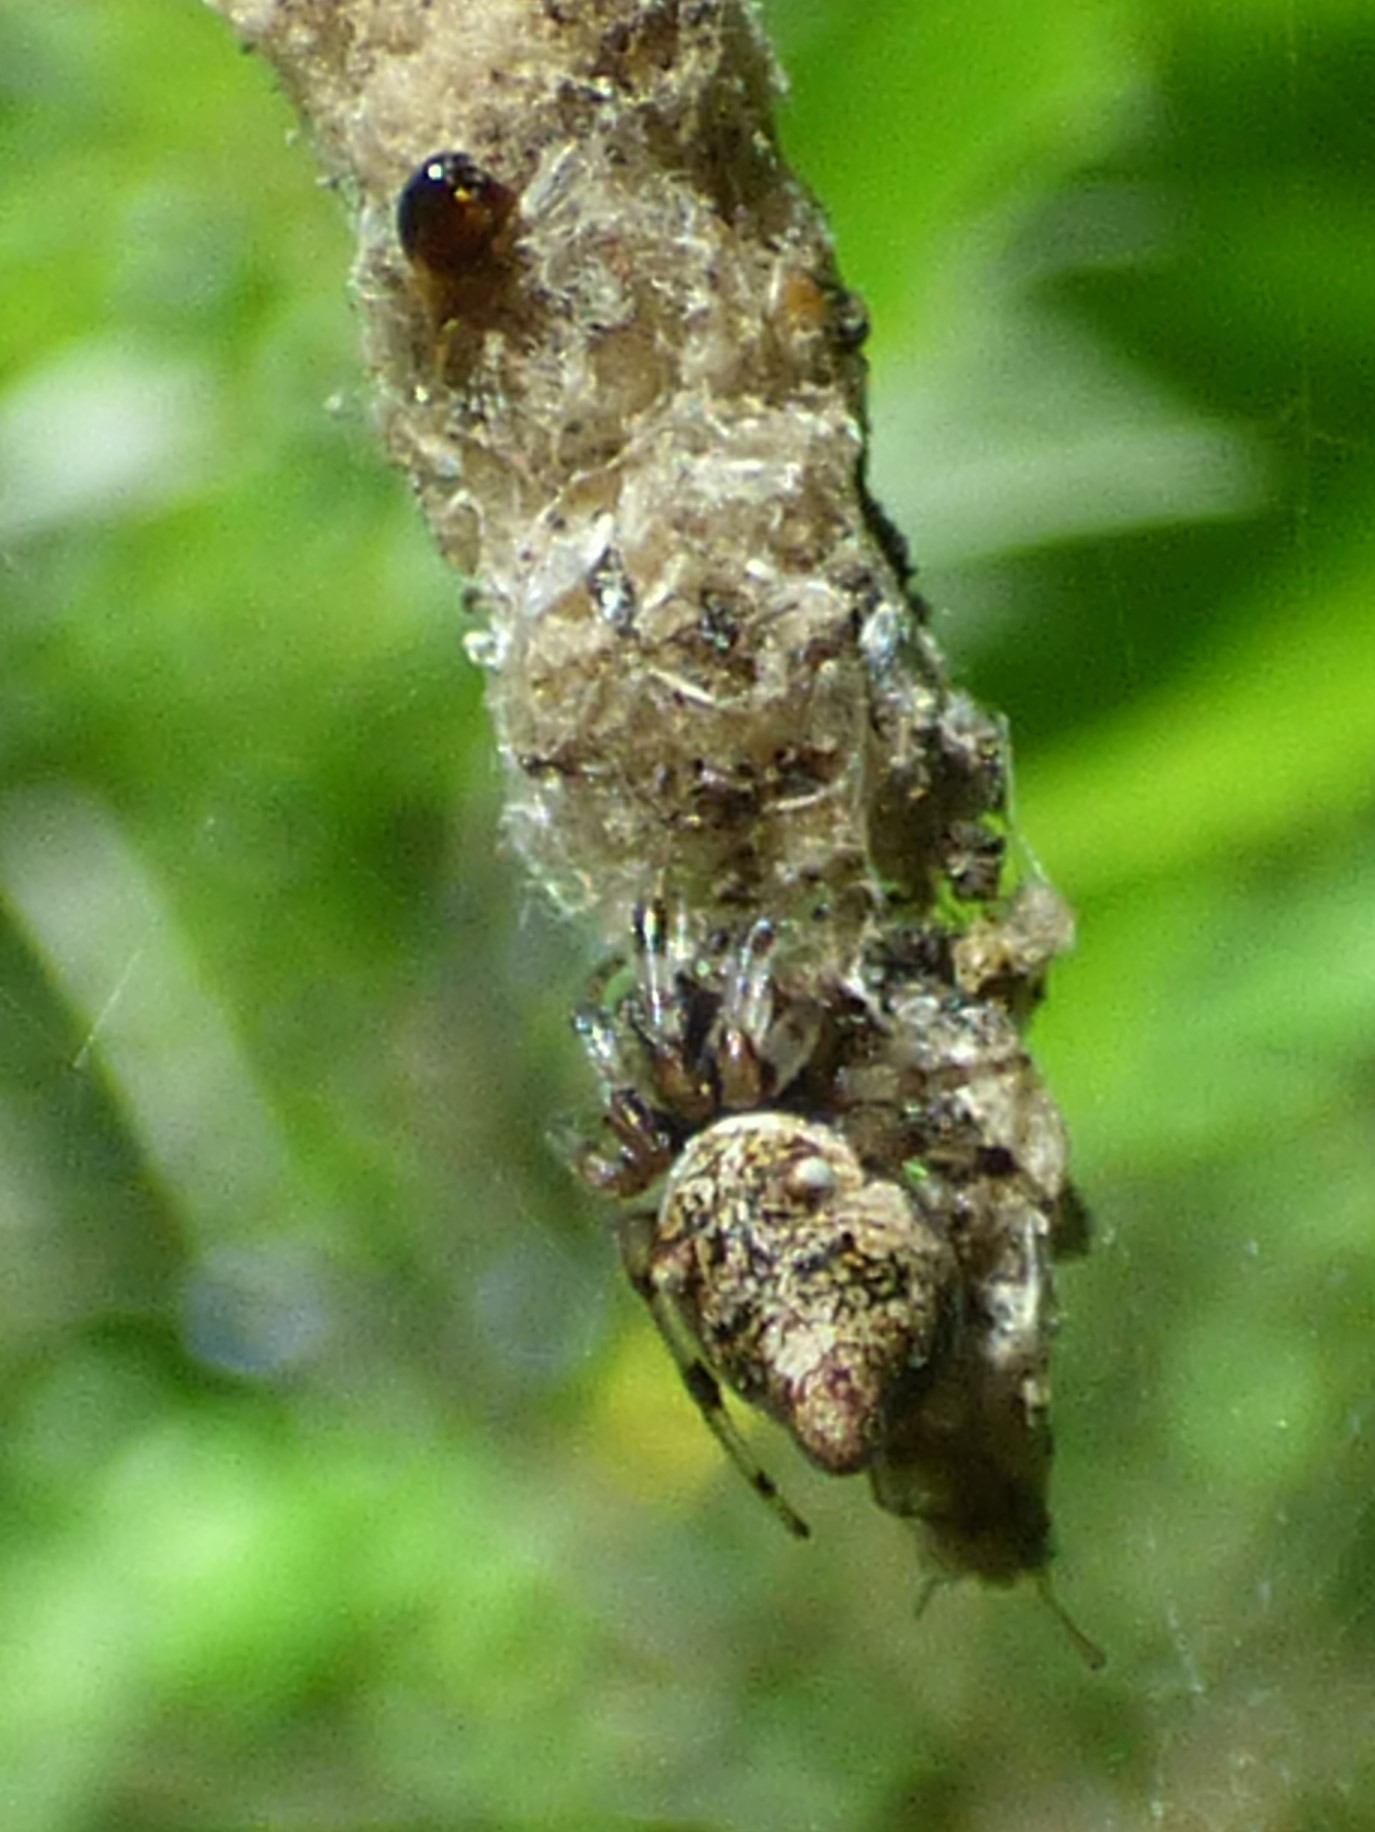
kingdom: Animalia
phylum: Arthropoda
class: Arachnida
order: Araneae
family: Araneidae
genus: Cyclosa
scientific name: Cyclosa turbinata
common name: Orb weavers
